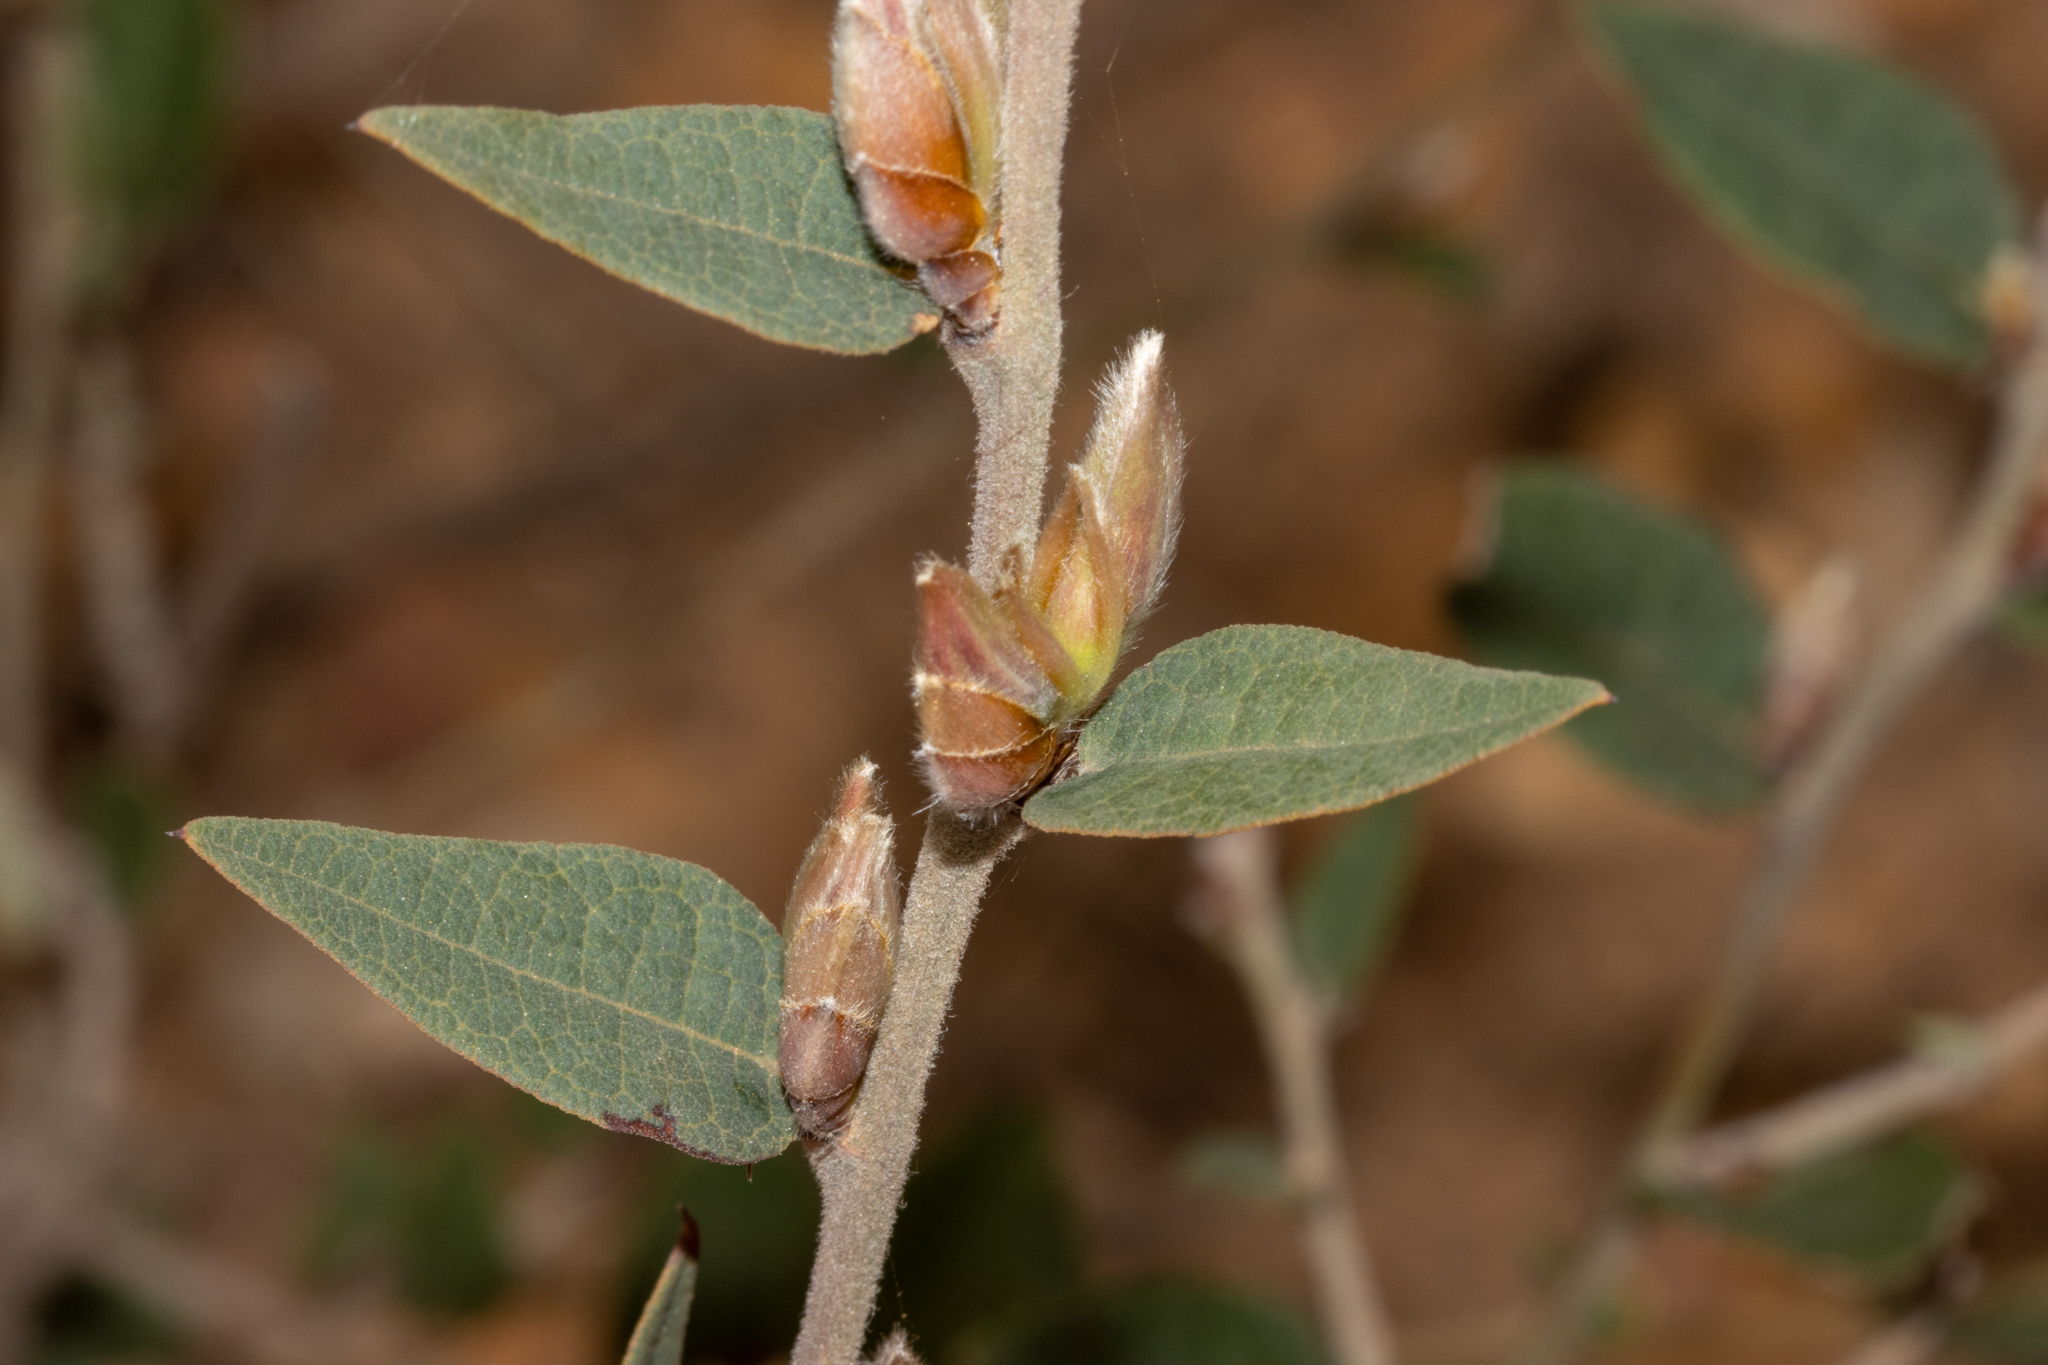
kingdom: Plantae
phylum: Tracheophyta
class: Magnoliopsida
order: Fabales
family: Fabaceae
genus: Bossiaea
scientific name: Bossiaea ornata
